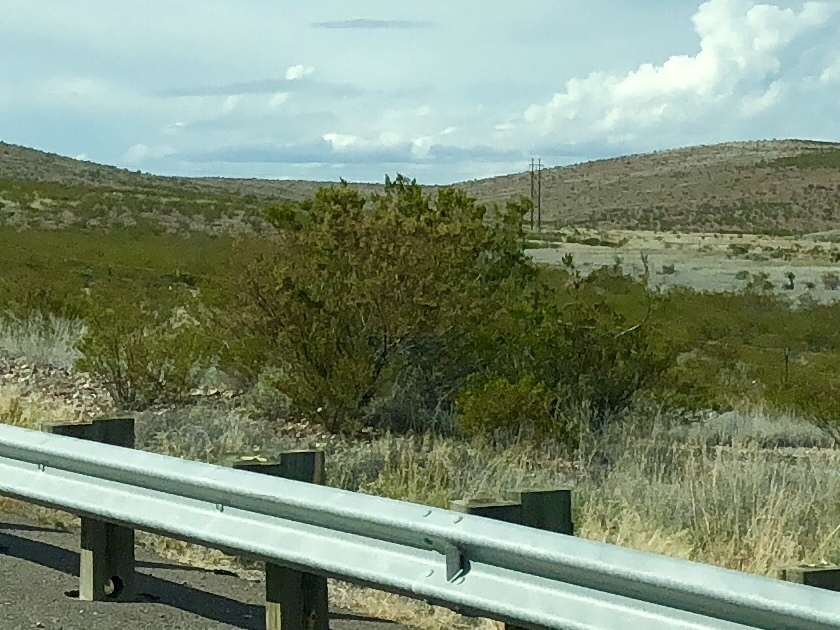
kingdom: Plantae
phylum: Tracheophyta
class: Magnoliopsida
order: Zygophyllales
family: Zygophyllaceae
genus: Larrea
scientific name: Larrea tridentata
